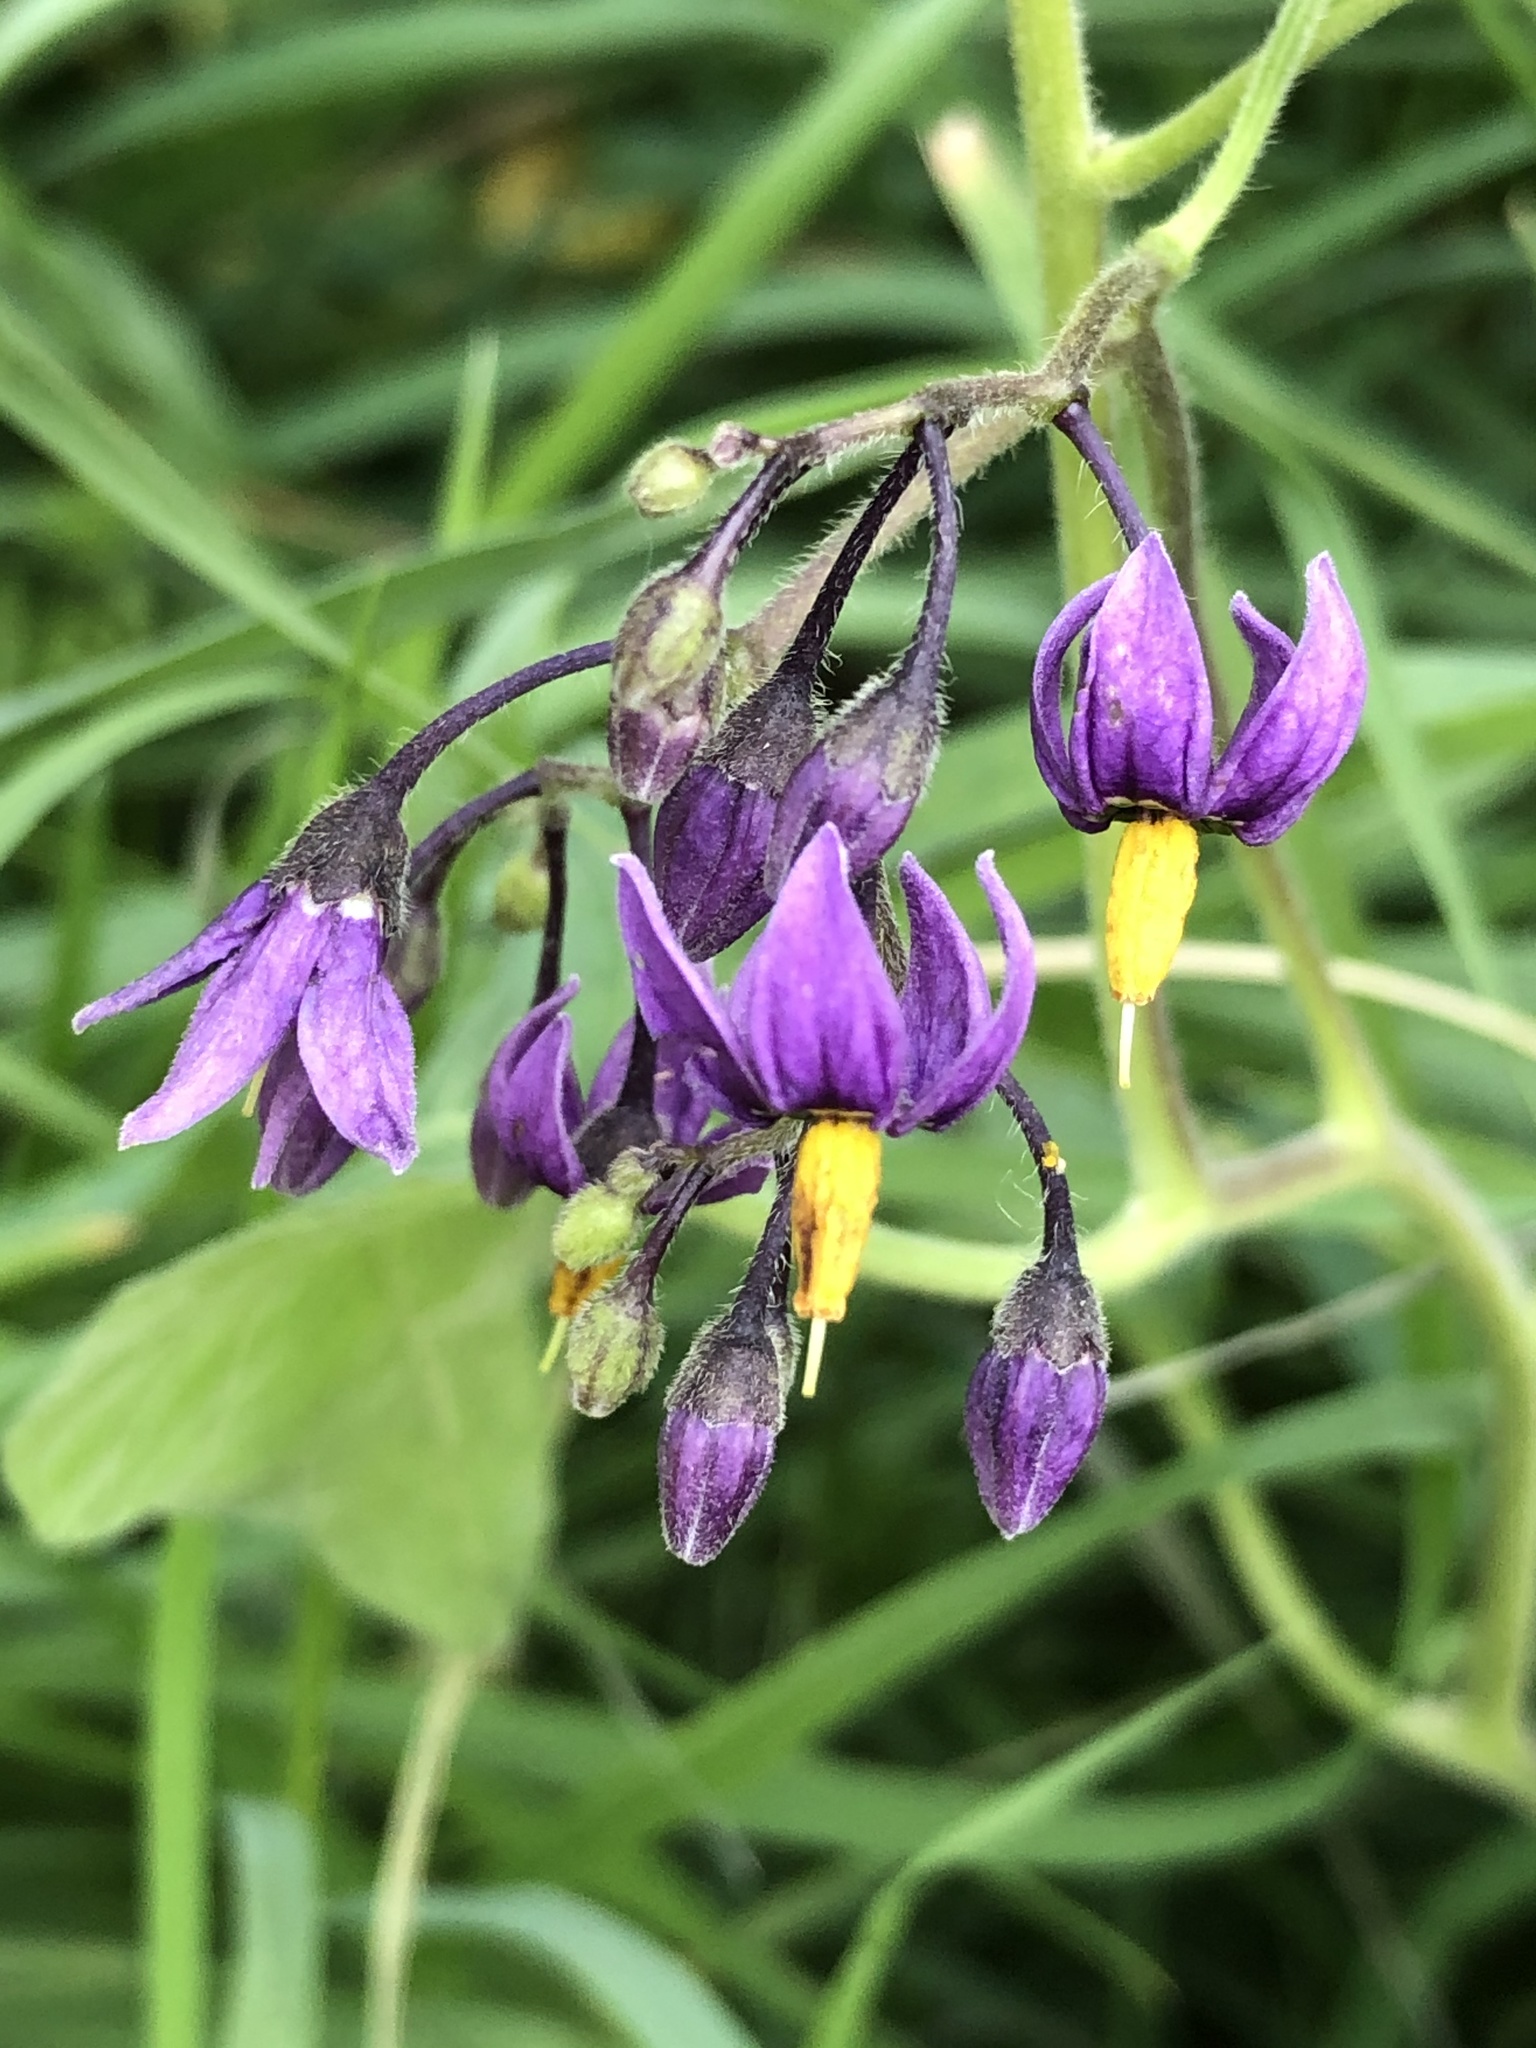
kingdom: Plantae
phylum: Tracheophyta
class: Magnoliopsida
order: Solanales
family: Solanaceae
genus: Solanum
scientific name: Solanum dulcamara
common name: Climbing nightshade
